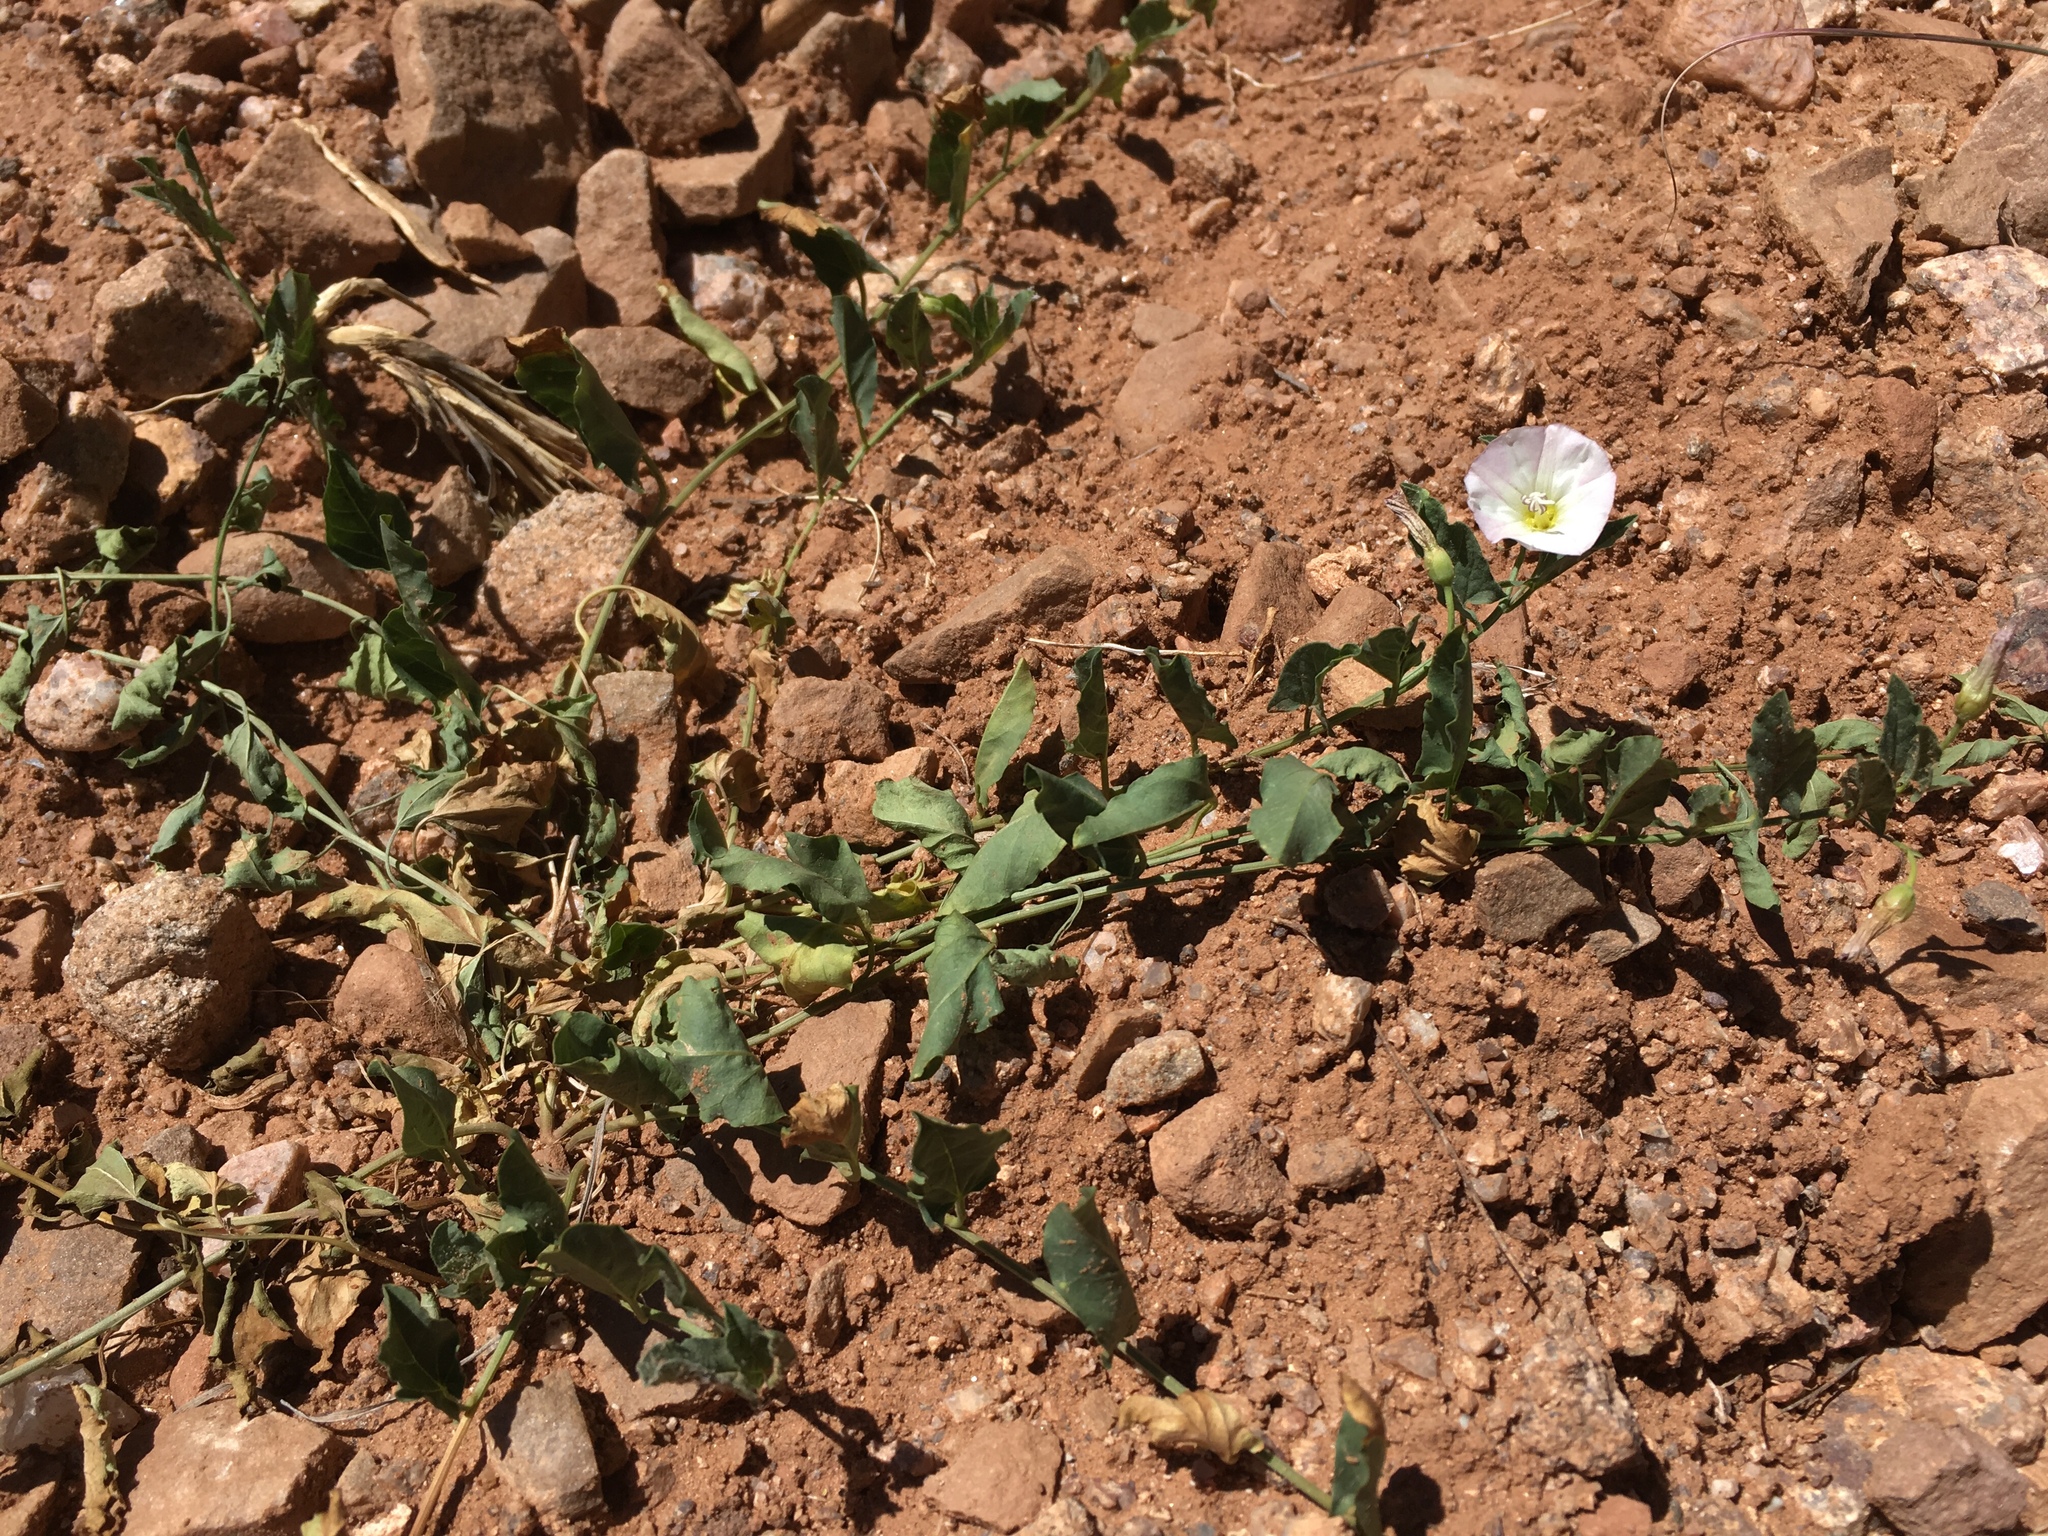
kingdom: Plantae
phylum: Tracheophyta
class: Magnoliopsida
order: Solanales
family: Convolvulaceae
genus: Convolvulus
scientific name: Convolvulus arvensis
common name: Field bindweed
